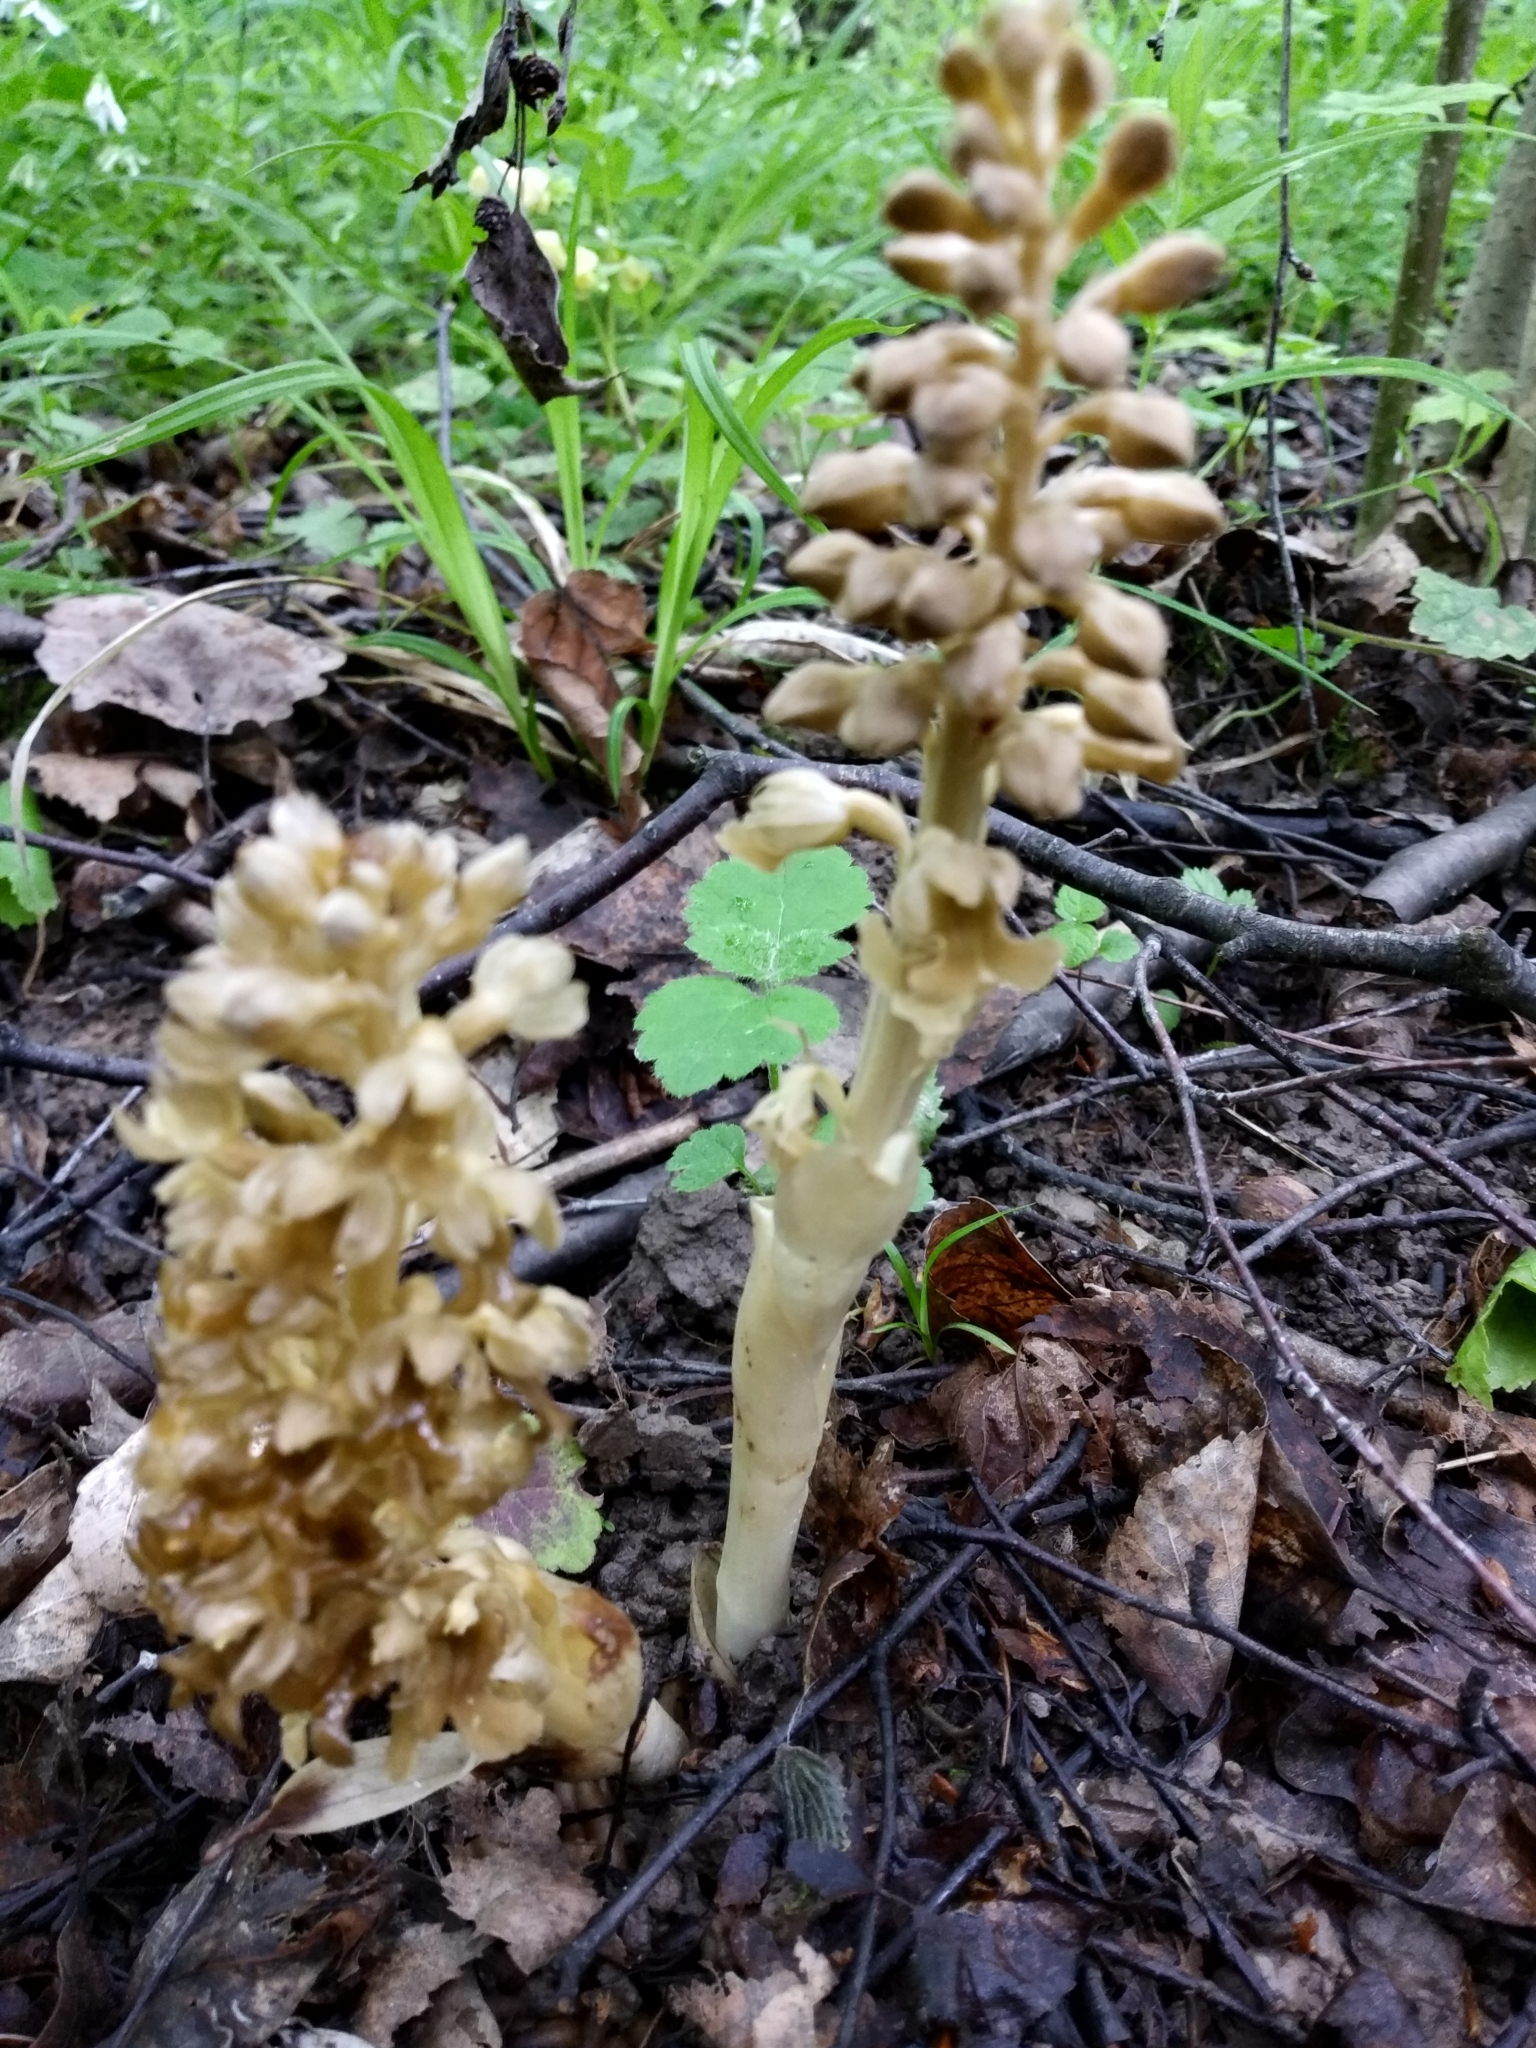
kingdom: Plantae
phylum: Tracheophyta
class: Liliopsida
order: Asparagales
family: Orchidaceae
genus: Neottia
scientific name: Neottia nidus-avis
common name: Bird's-nest orchid
